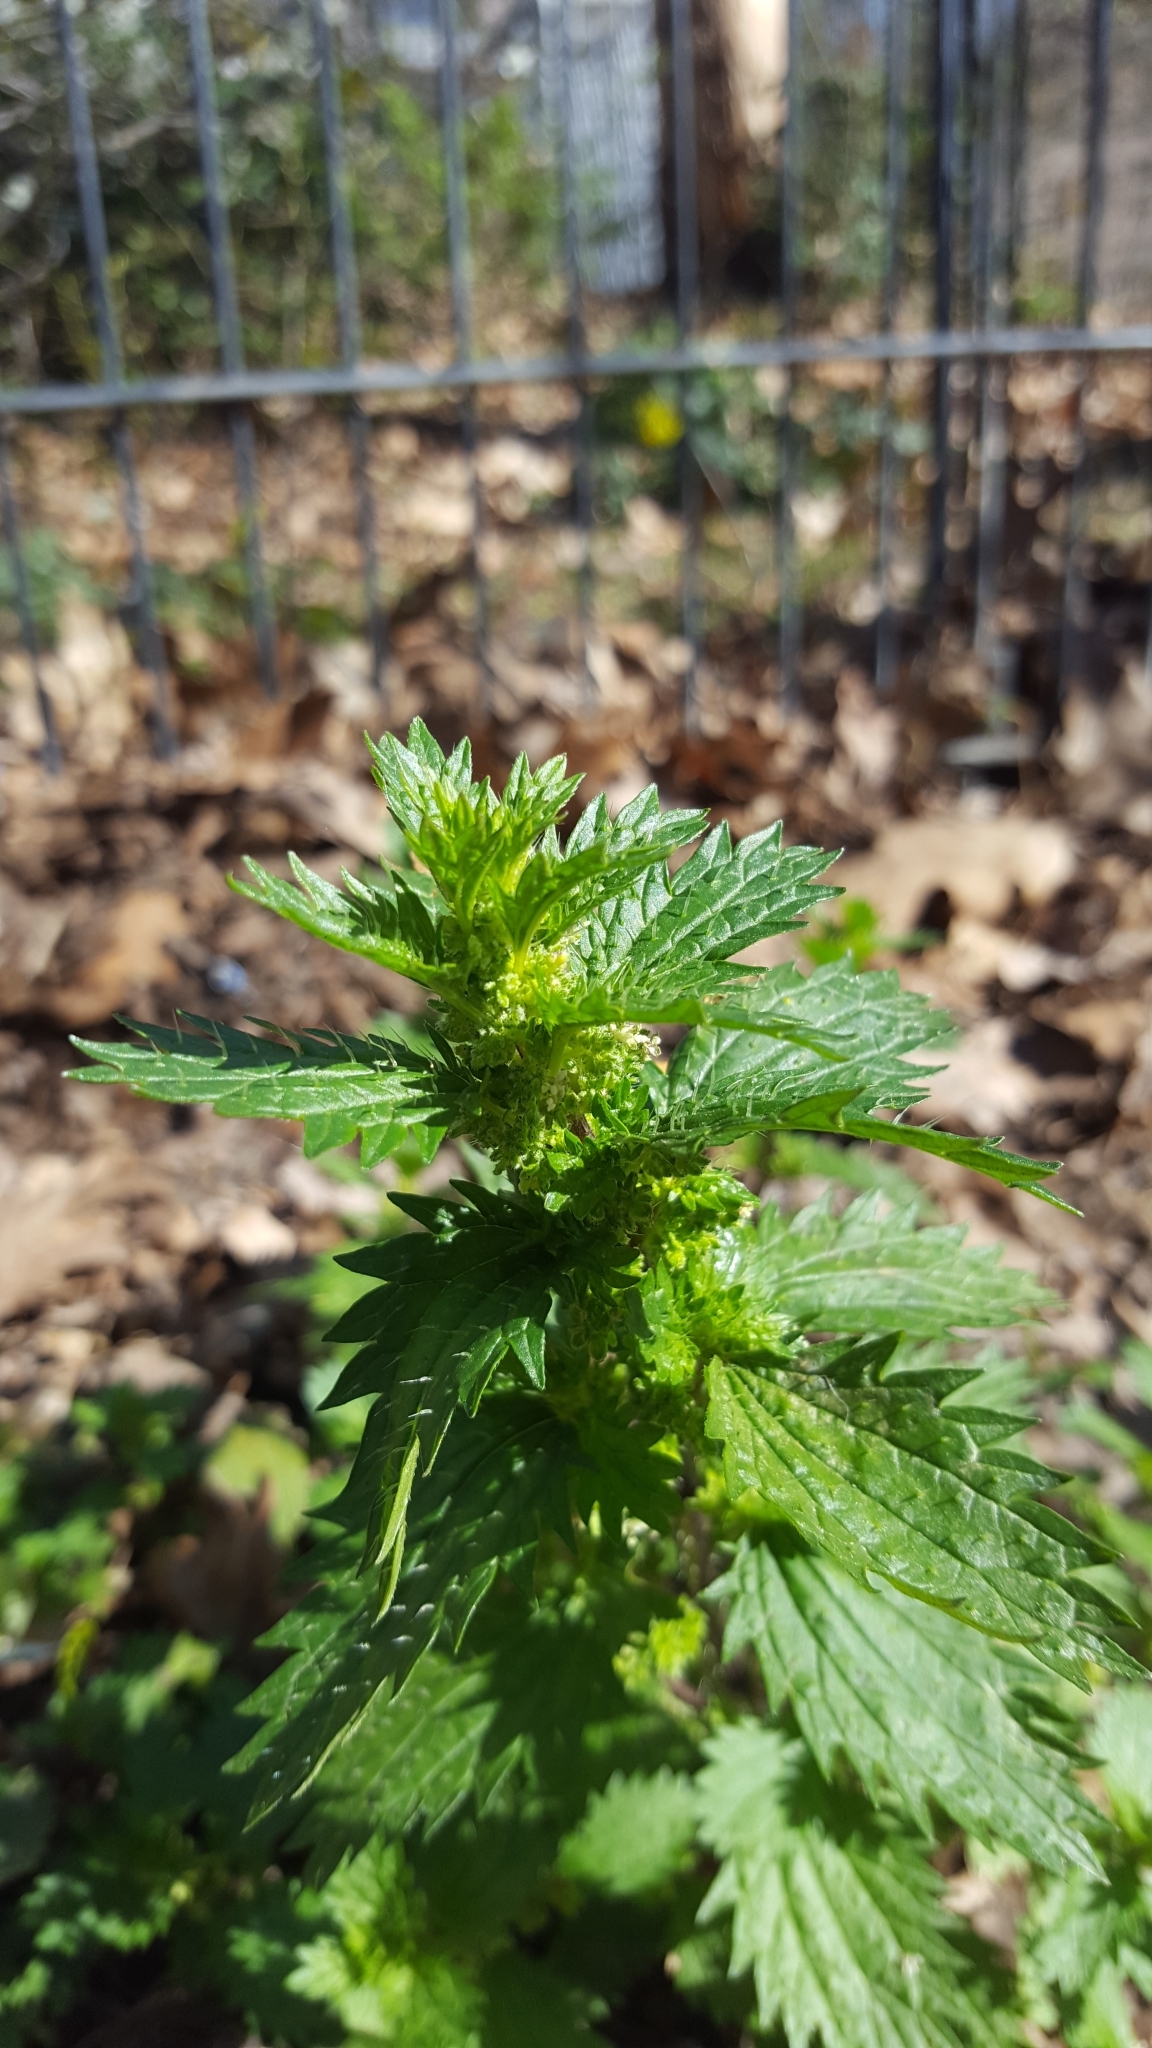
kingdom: Plantae
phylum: Tracheophyta
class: Magnoliopsida
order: Rosales
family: Urticaceae
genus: Urtica
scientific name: Urtica urens
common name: Dwarf nettle
